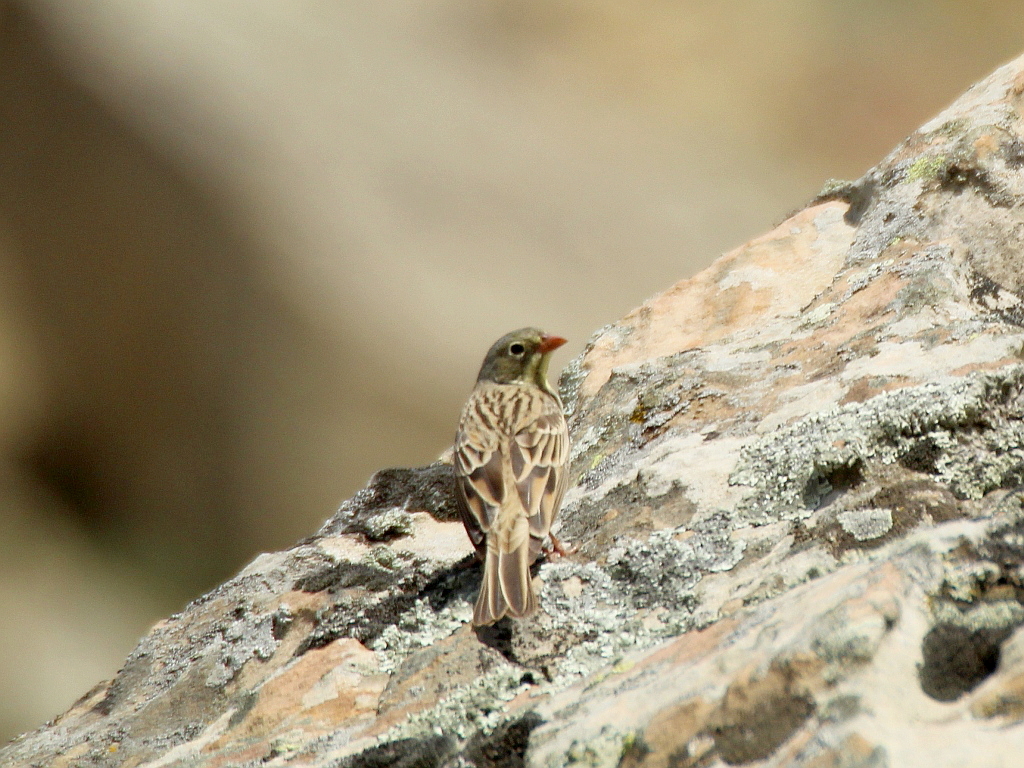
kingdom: Animalia
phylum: Chordata
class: Aves
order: Passeriformes
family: Emberizidae
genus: Emberiza
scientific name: Emberiza hortulana
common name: Ortolan bunting
